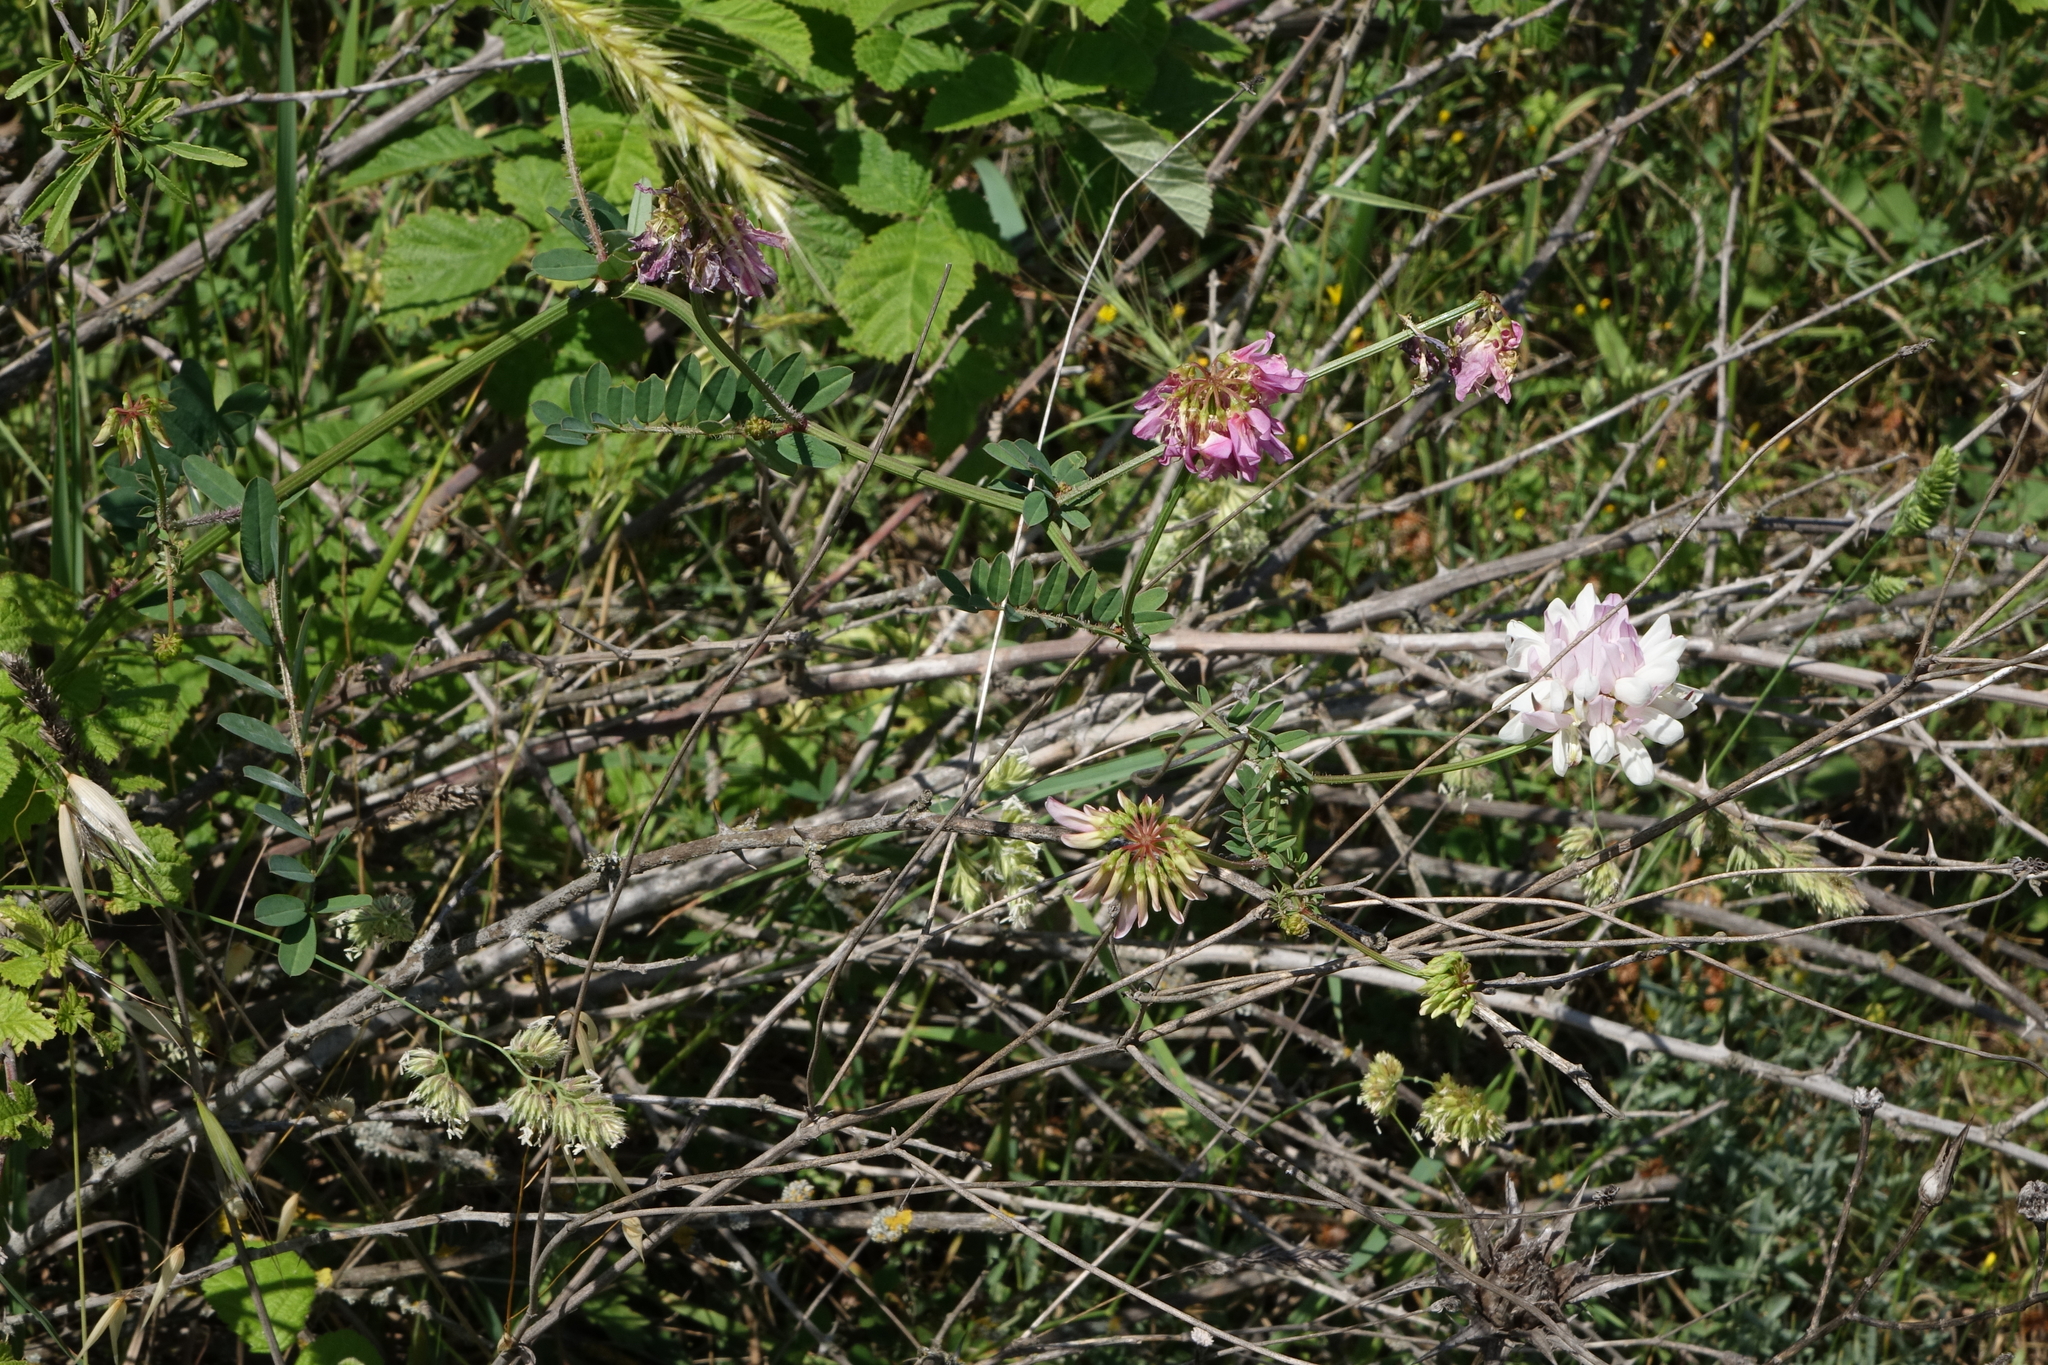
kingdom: Plantae
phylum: Tracheophyta
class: Magnoliopsida
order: Fabales
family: Fabaceae
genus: Coronilla
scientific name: Coronilla varia
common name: Crownvetch
